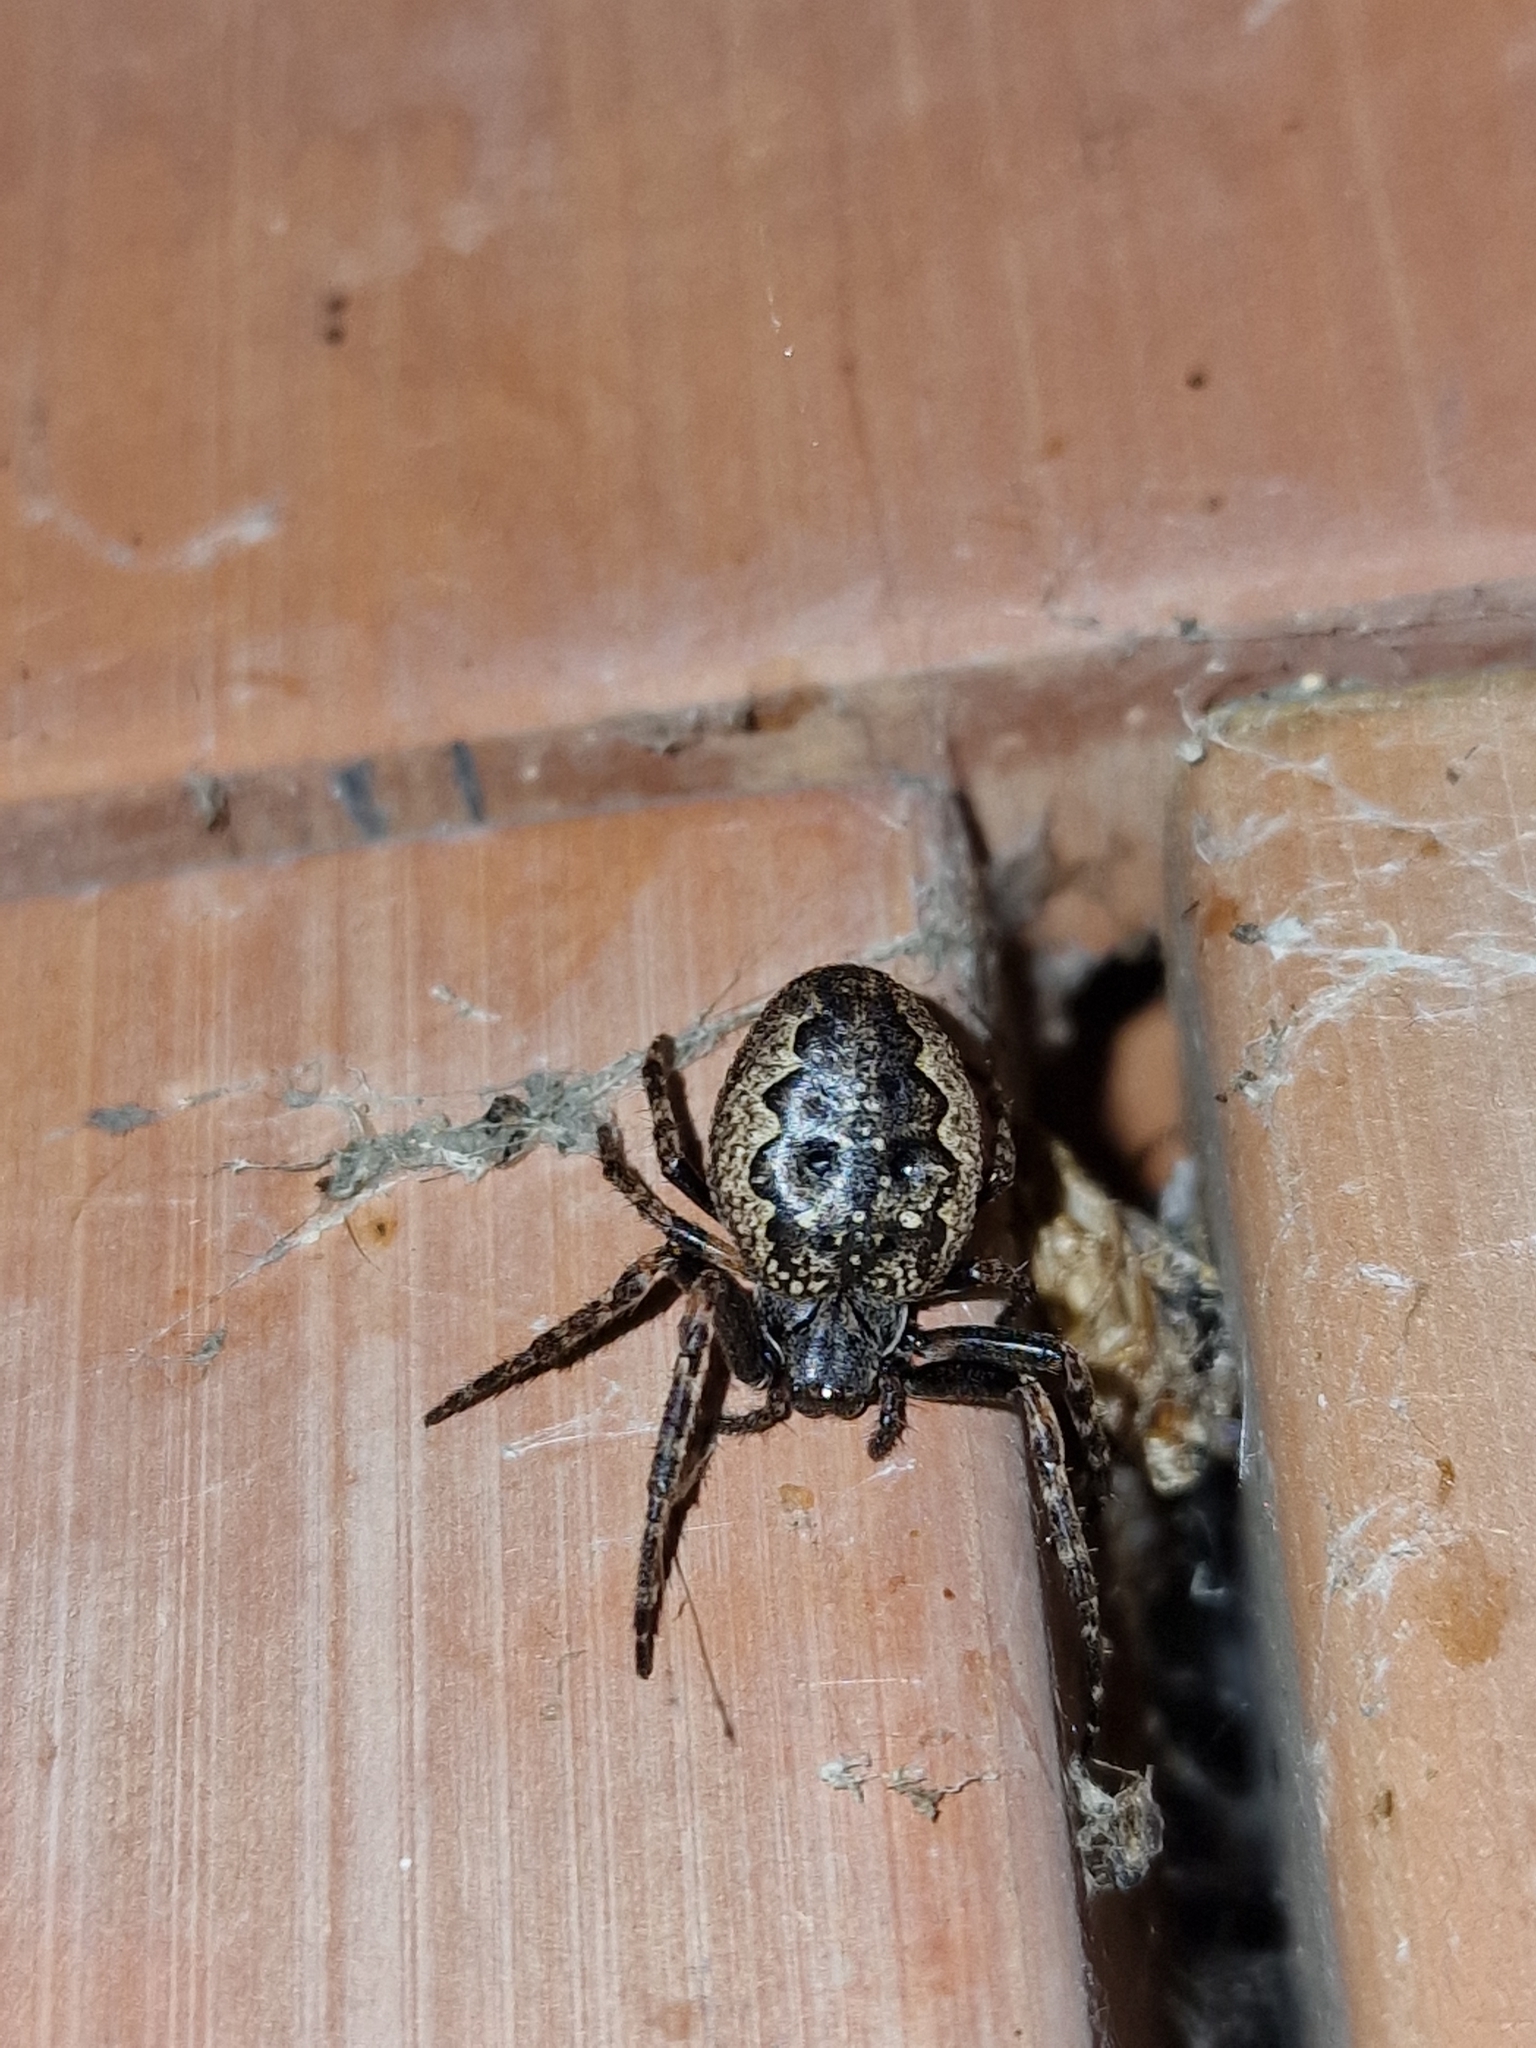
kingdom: Animalia
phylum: Arthropoda
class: Arachnida
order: Araneae
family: Araneidae
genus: Nuctenea
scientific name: Nuctenea umbratica
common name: Toad spider
